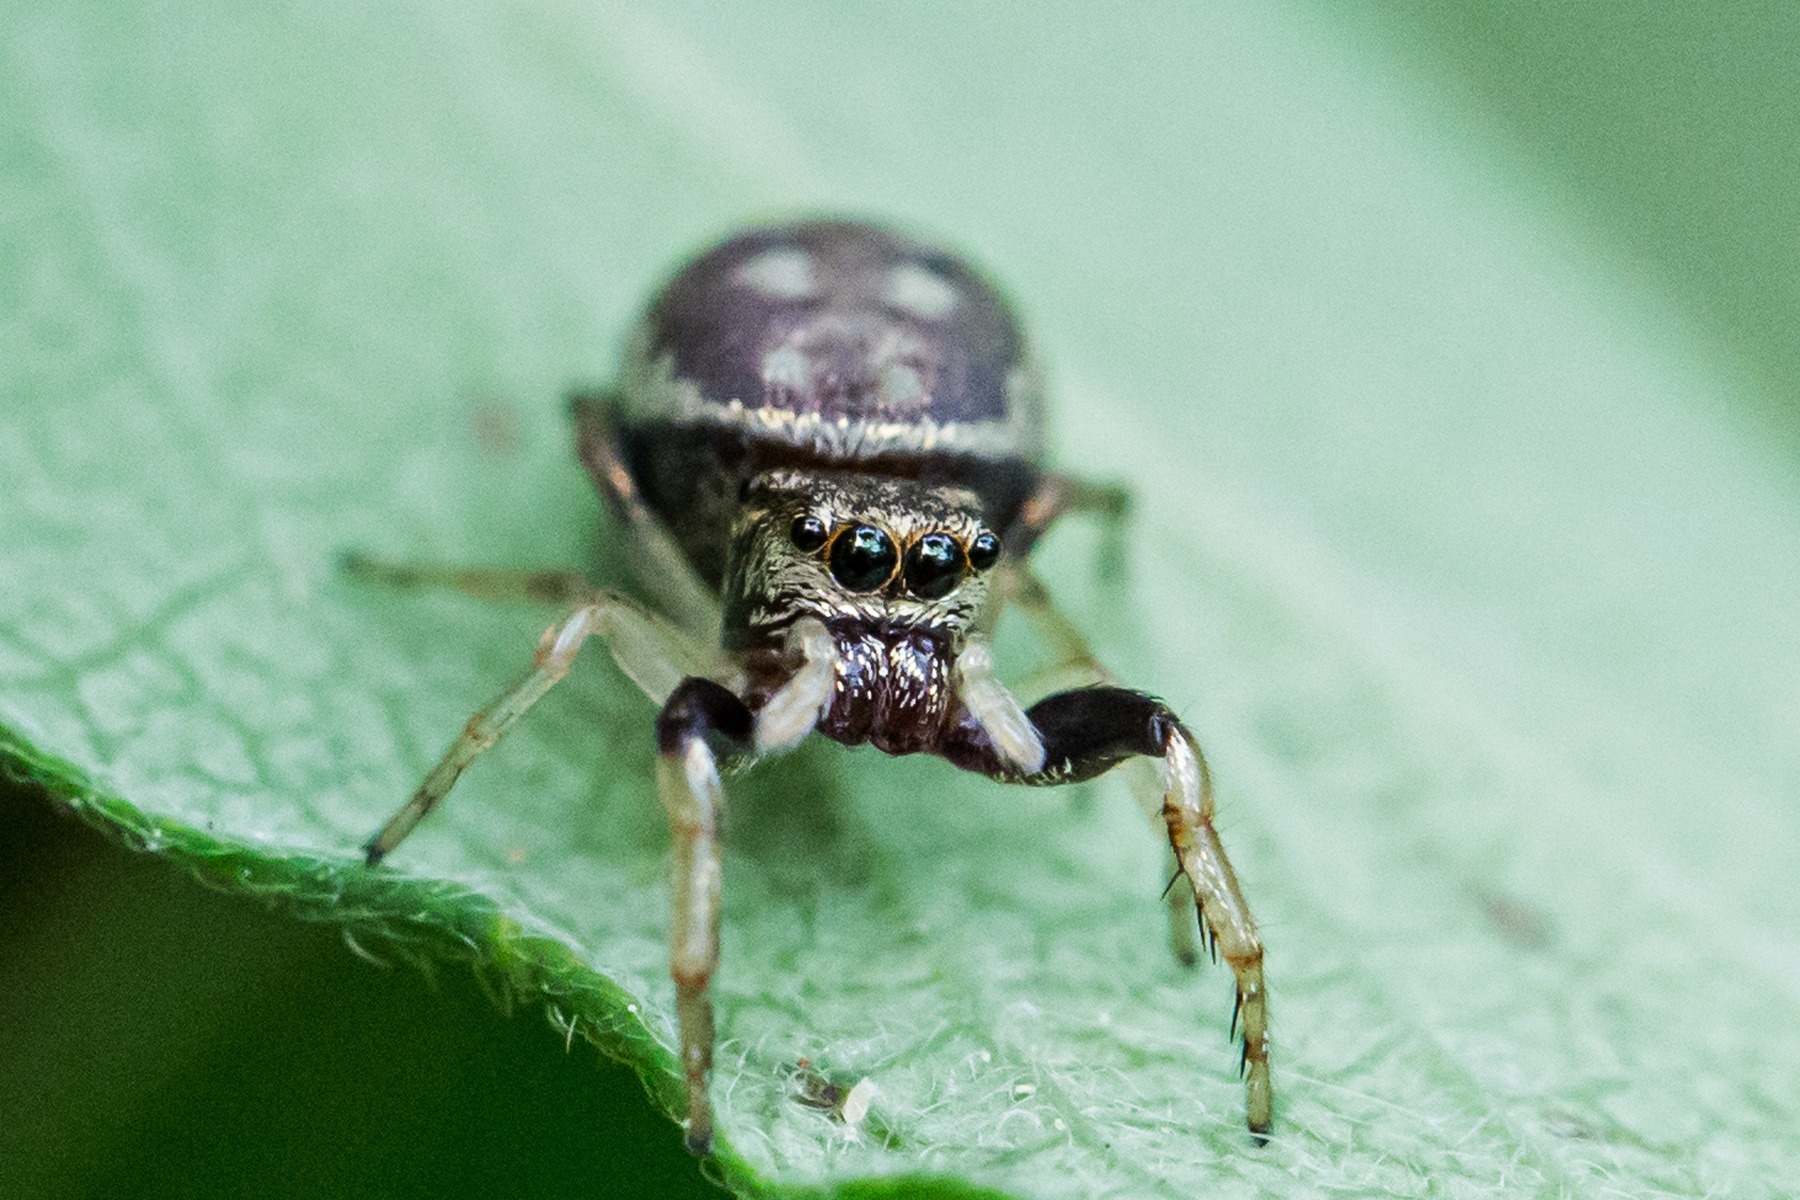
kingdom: Animalia
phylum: Arthropoda
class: Arachnida
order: Araneae
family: Salticidae
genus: Zygoballus
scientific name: Zygoballus rufipes
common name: Jumping spiders
